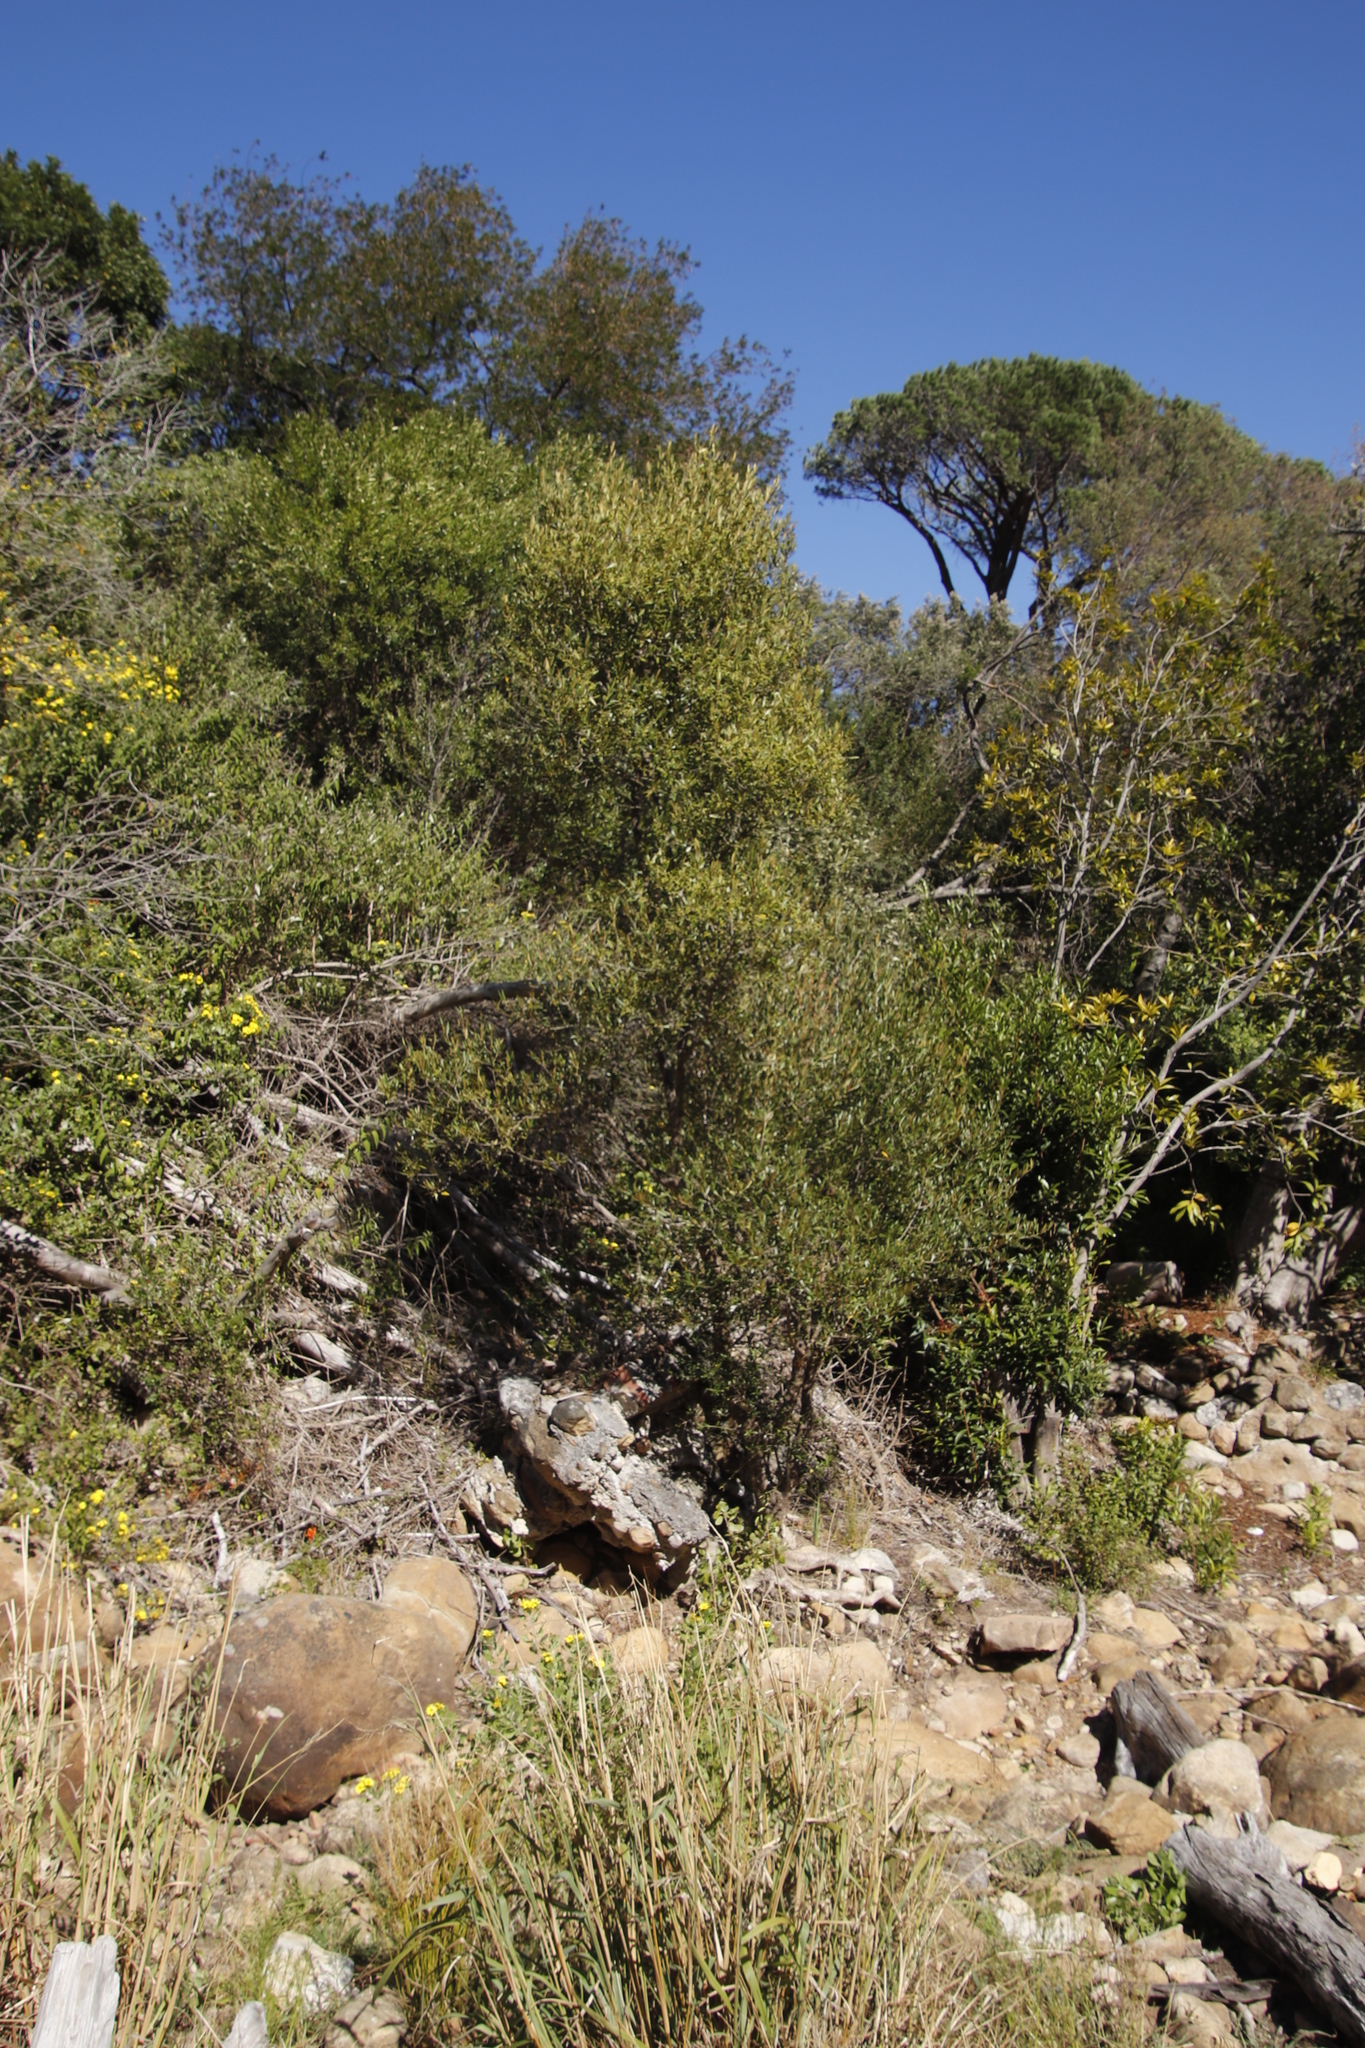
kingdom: Plantae
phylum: Tracheophyta
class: Magnoliopsida
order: Lamiales
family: Oleaceae
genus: Olea
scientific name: Olea europaea
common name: Olive
